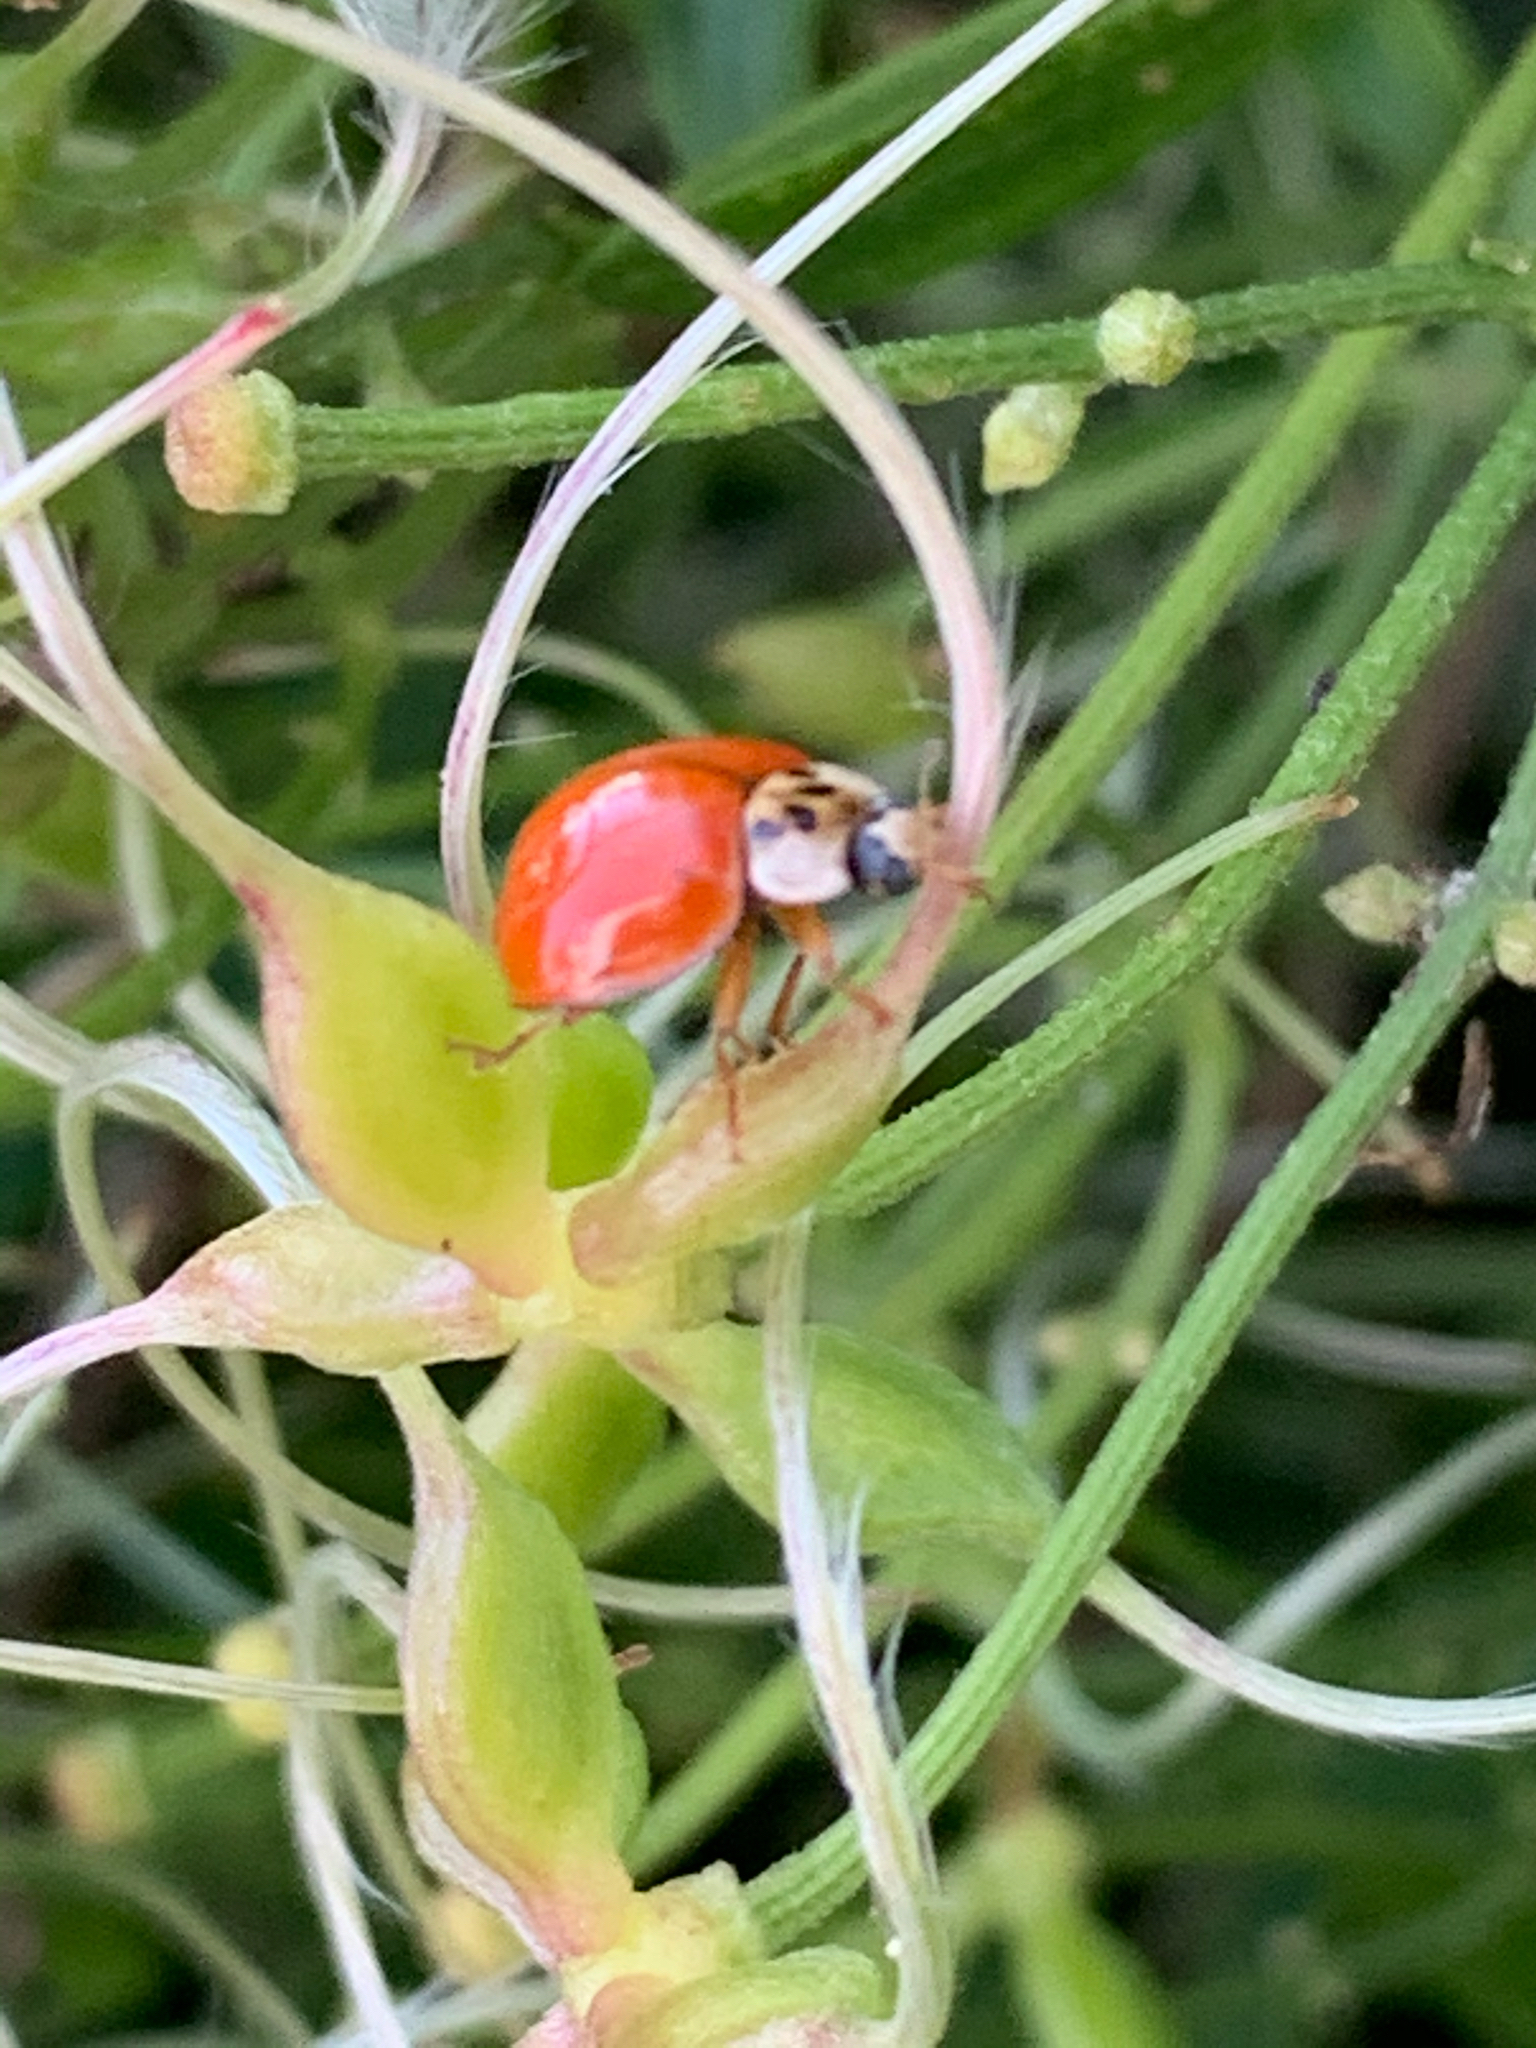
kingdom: Animalia
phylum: Arthropoda
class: Insecta
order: Coleoptera
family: Coccinellidae
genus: Harmonia
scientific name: Harmonia axyridis
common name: Harlequin ladybird
